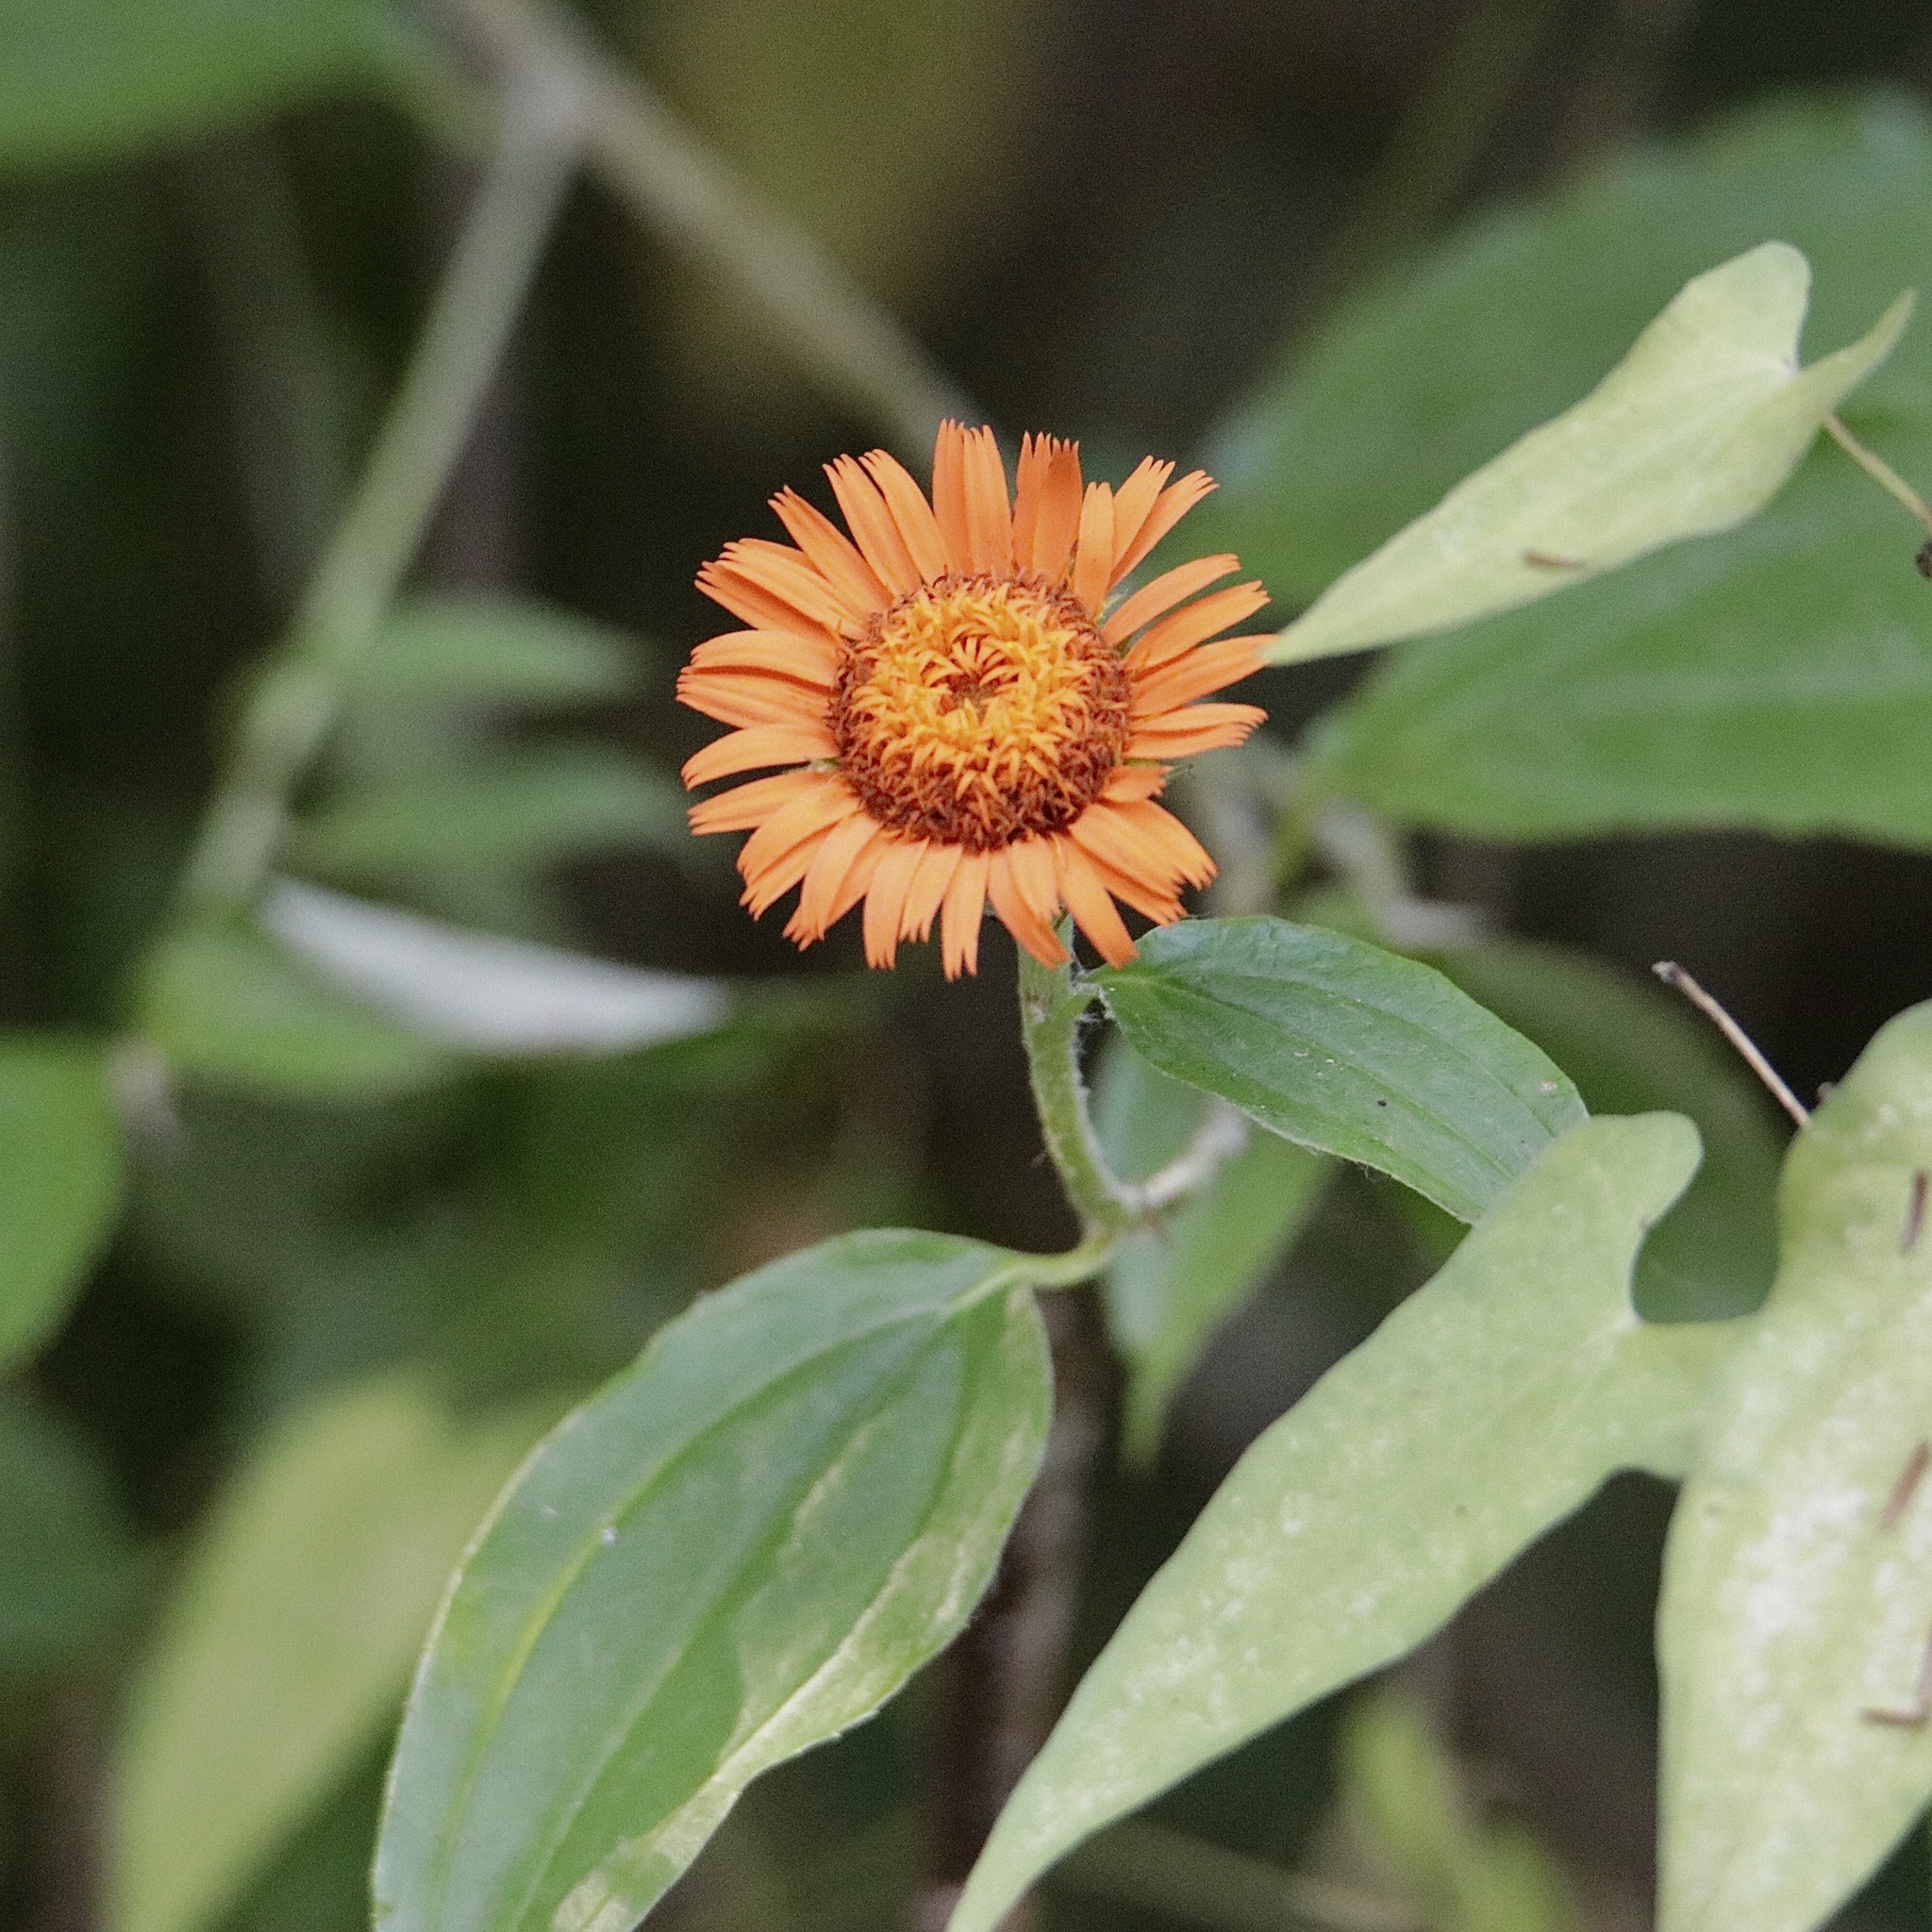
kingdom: Plantae
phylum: Tracheophyta
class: Magnoliopsida
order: Asterales
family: Asteraceae
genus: Lycoseris
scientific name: Lycoseris triplinervia
